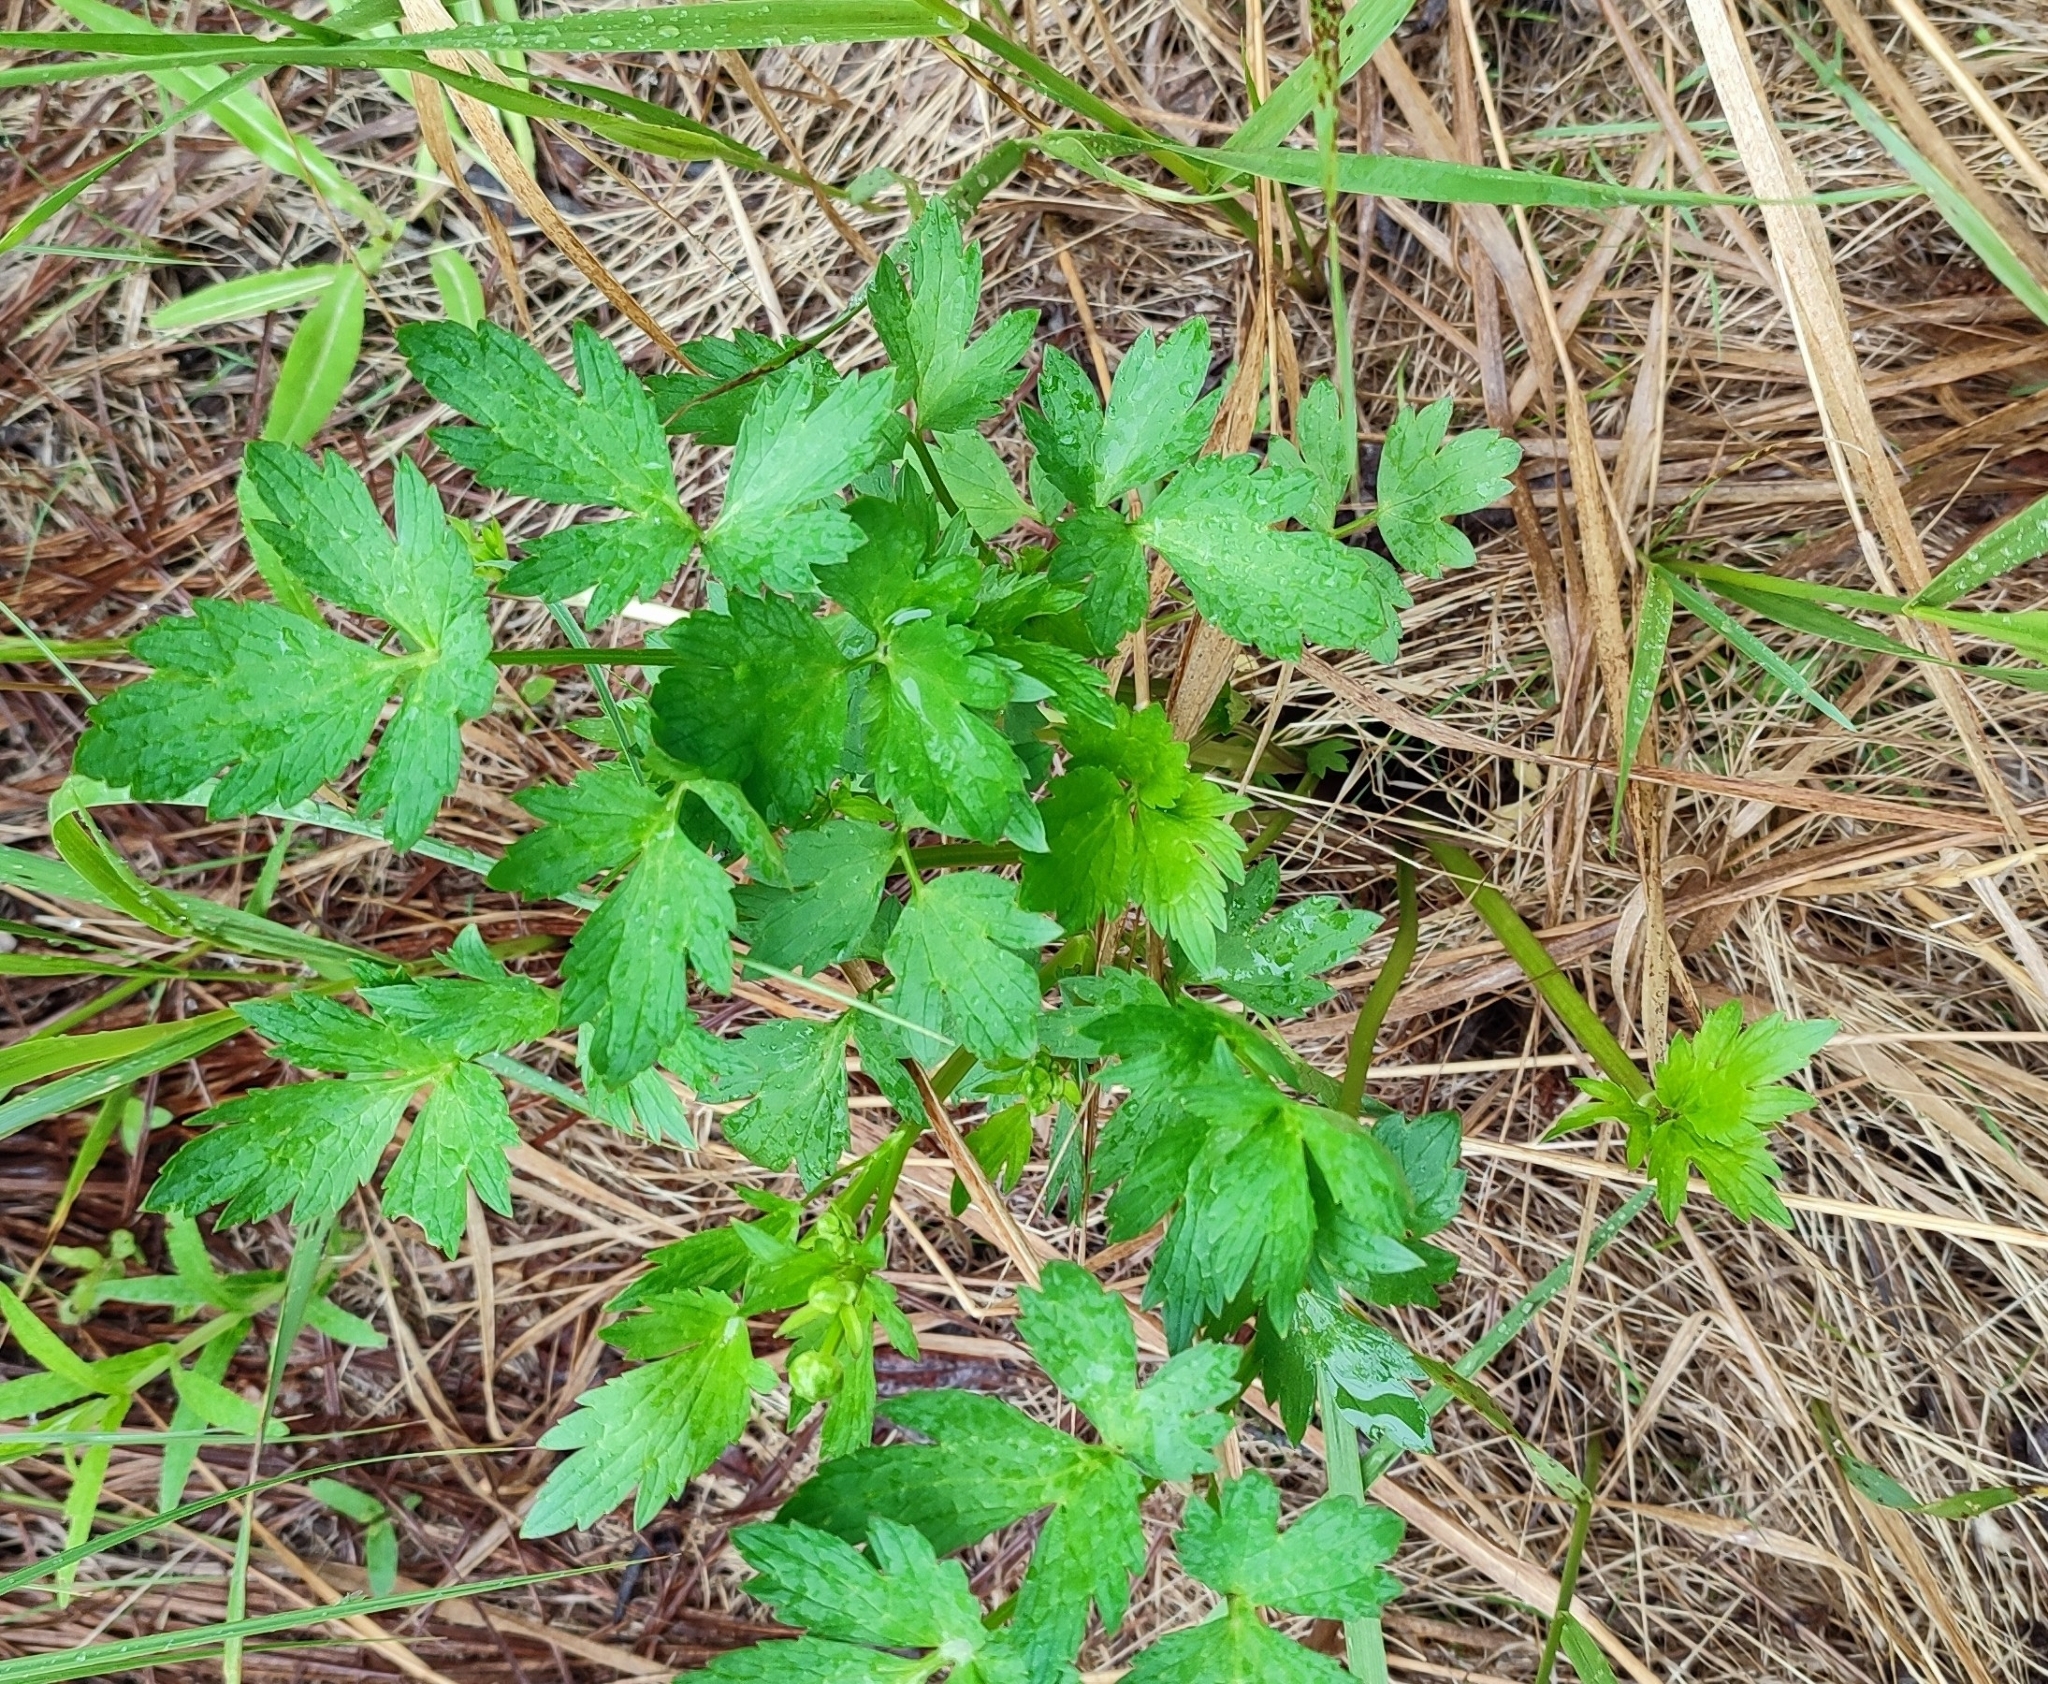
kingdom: Plantae
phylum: Tracheophyta
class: Magnoliopsida
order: Ranunculales
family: Ranunculaceae
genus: Ranunculus
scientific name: Ranunculus repens
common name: Creeping buttercup
